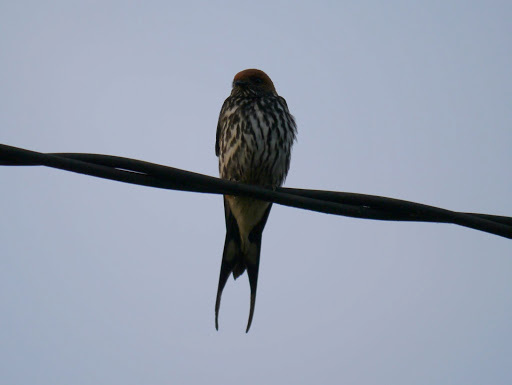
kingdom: Animalia
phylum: Chordata
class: Aves
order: Passeriformes
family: Hirundinidae
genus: Cecropis
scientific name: Cecropis abyssinica
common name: Lesser striped-swallow
